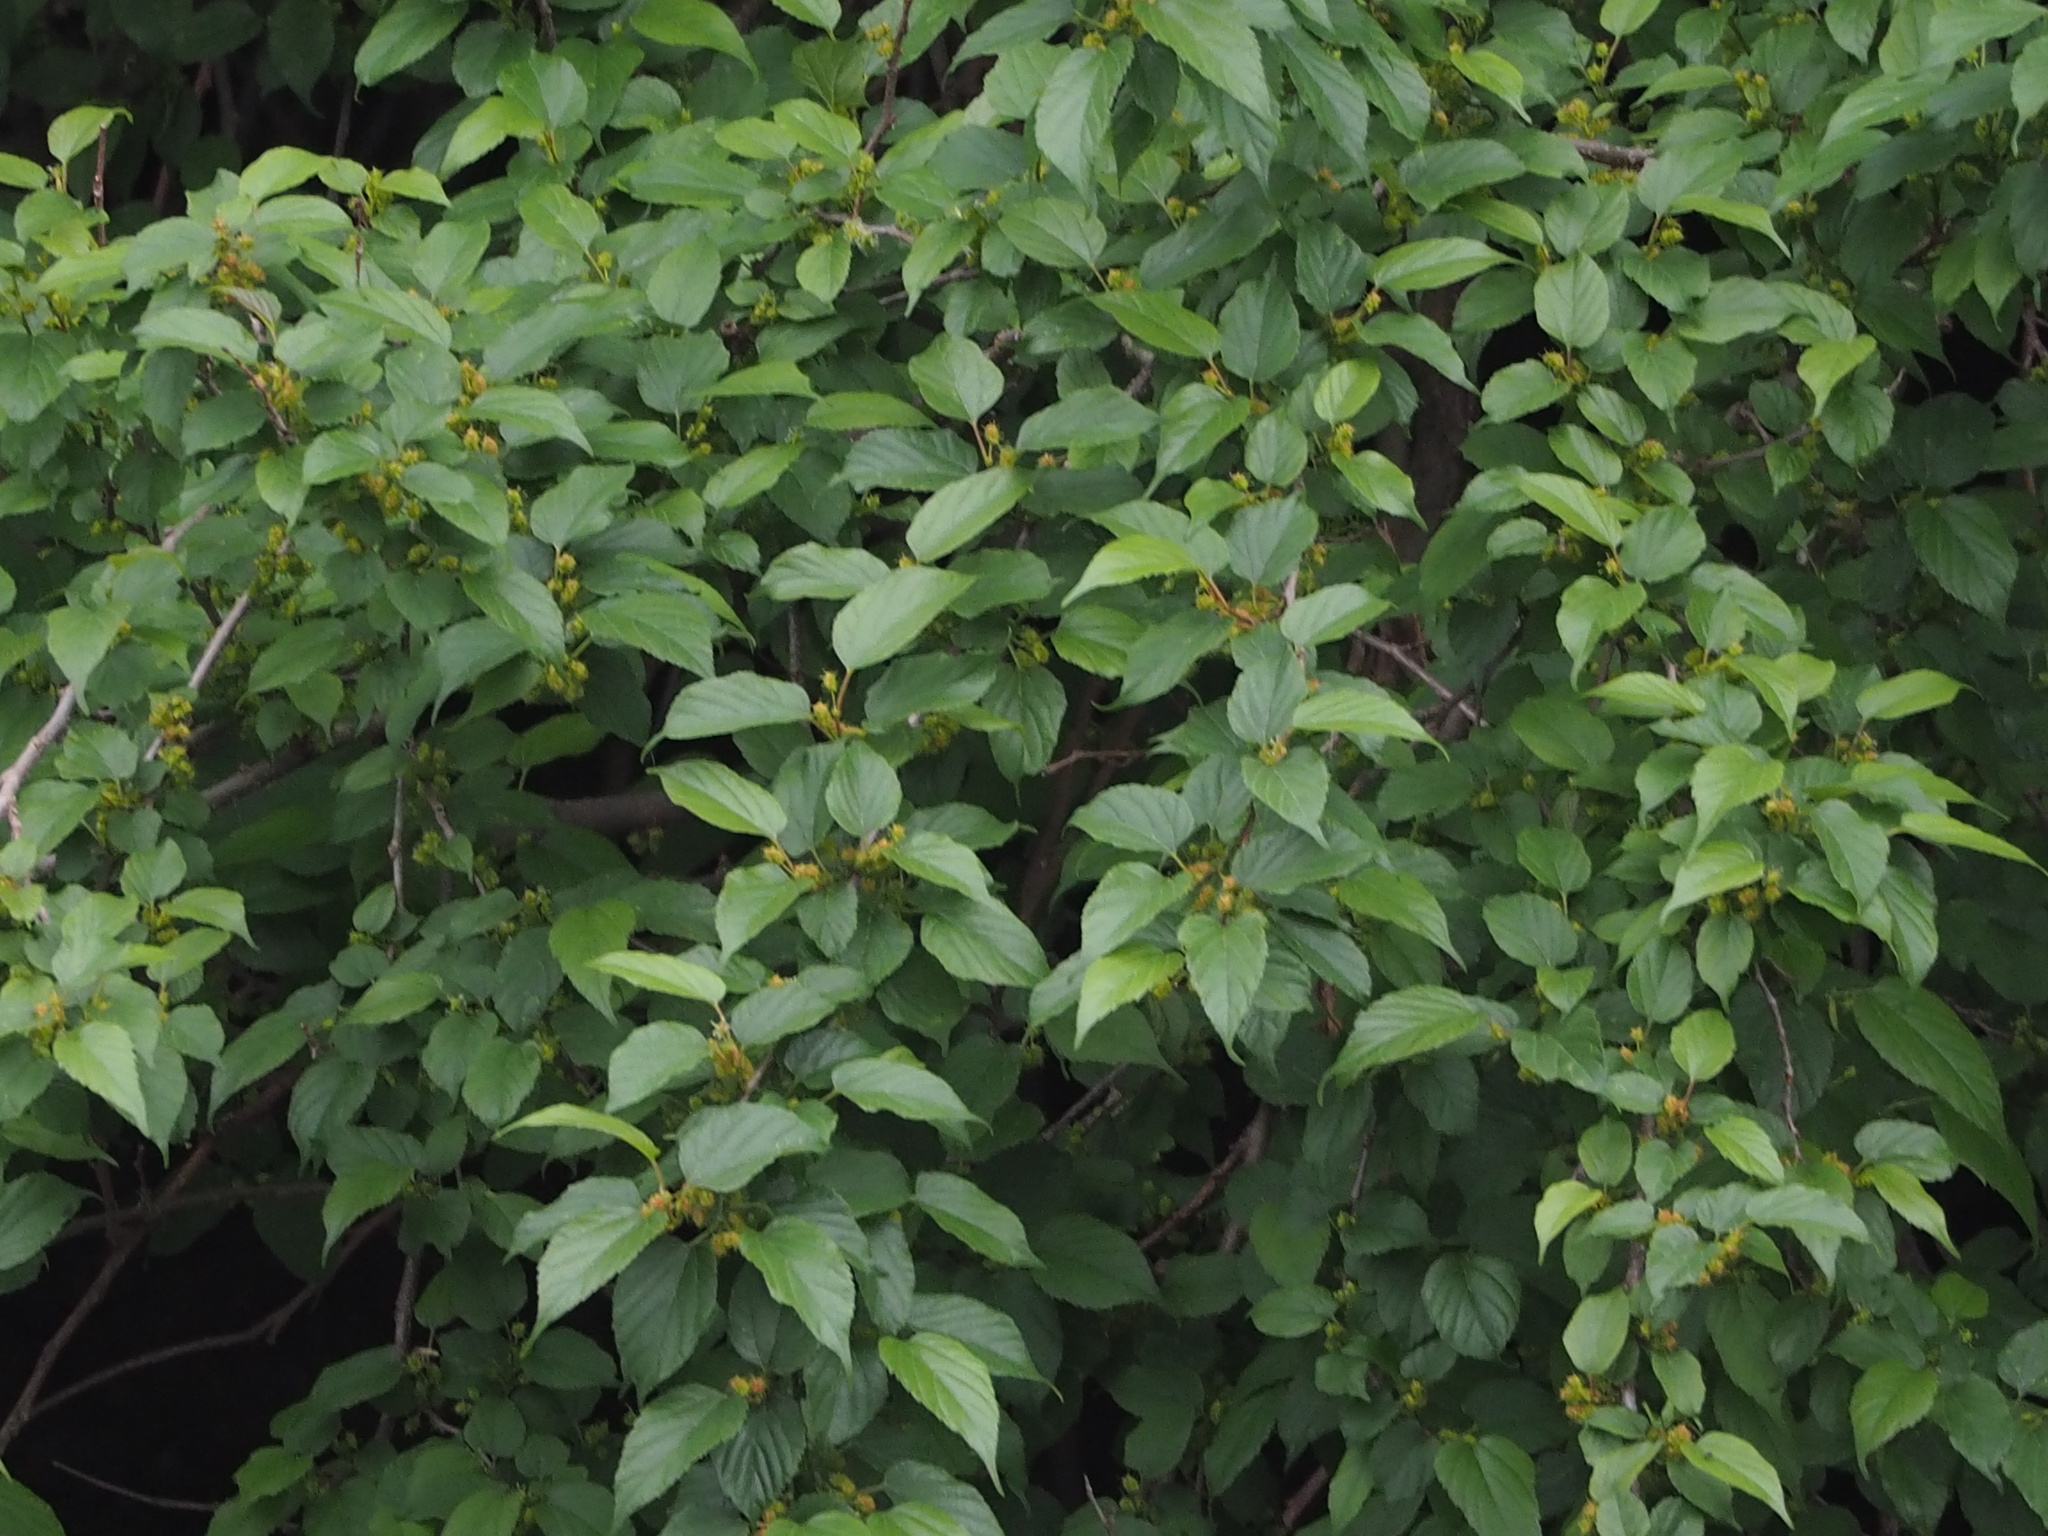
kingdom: Plantae
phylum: Tracheophyta
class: Magnoliopsida
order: Rosales
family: Moraceae
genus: Morus
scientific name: Morus indica
